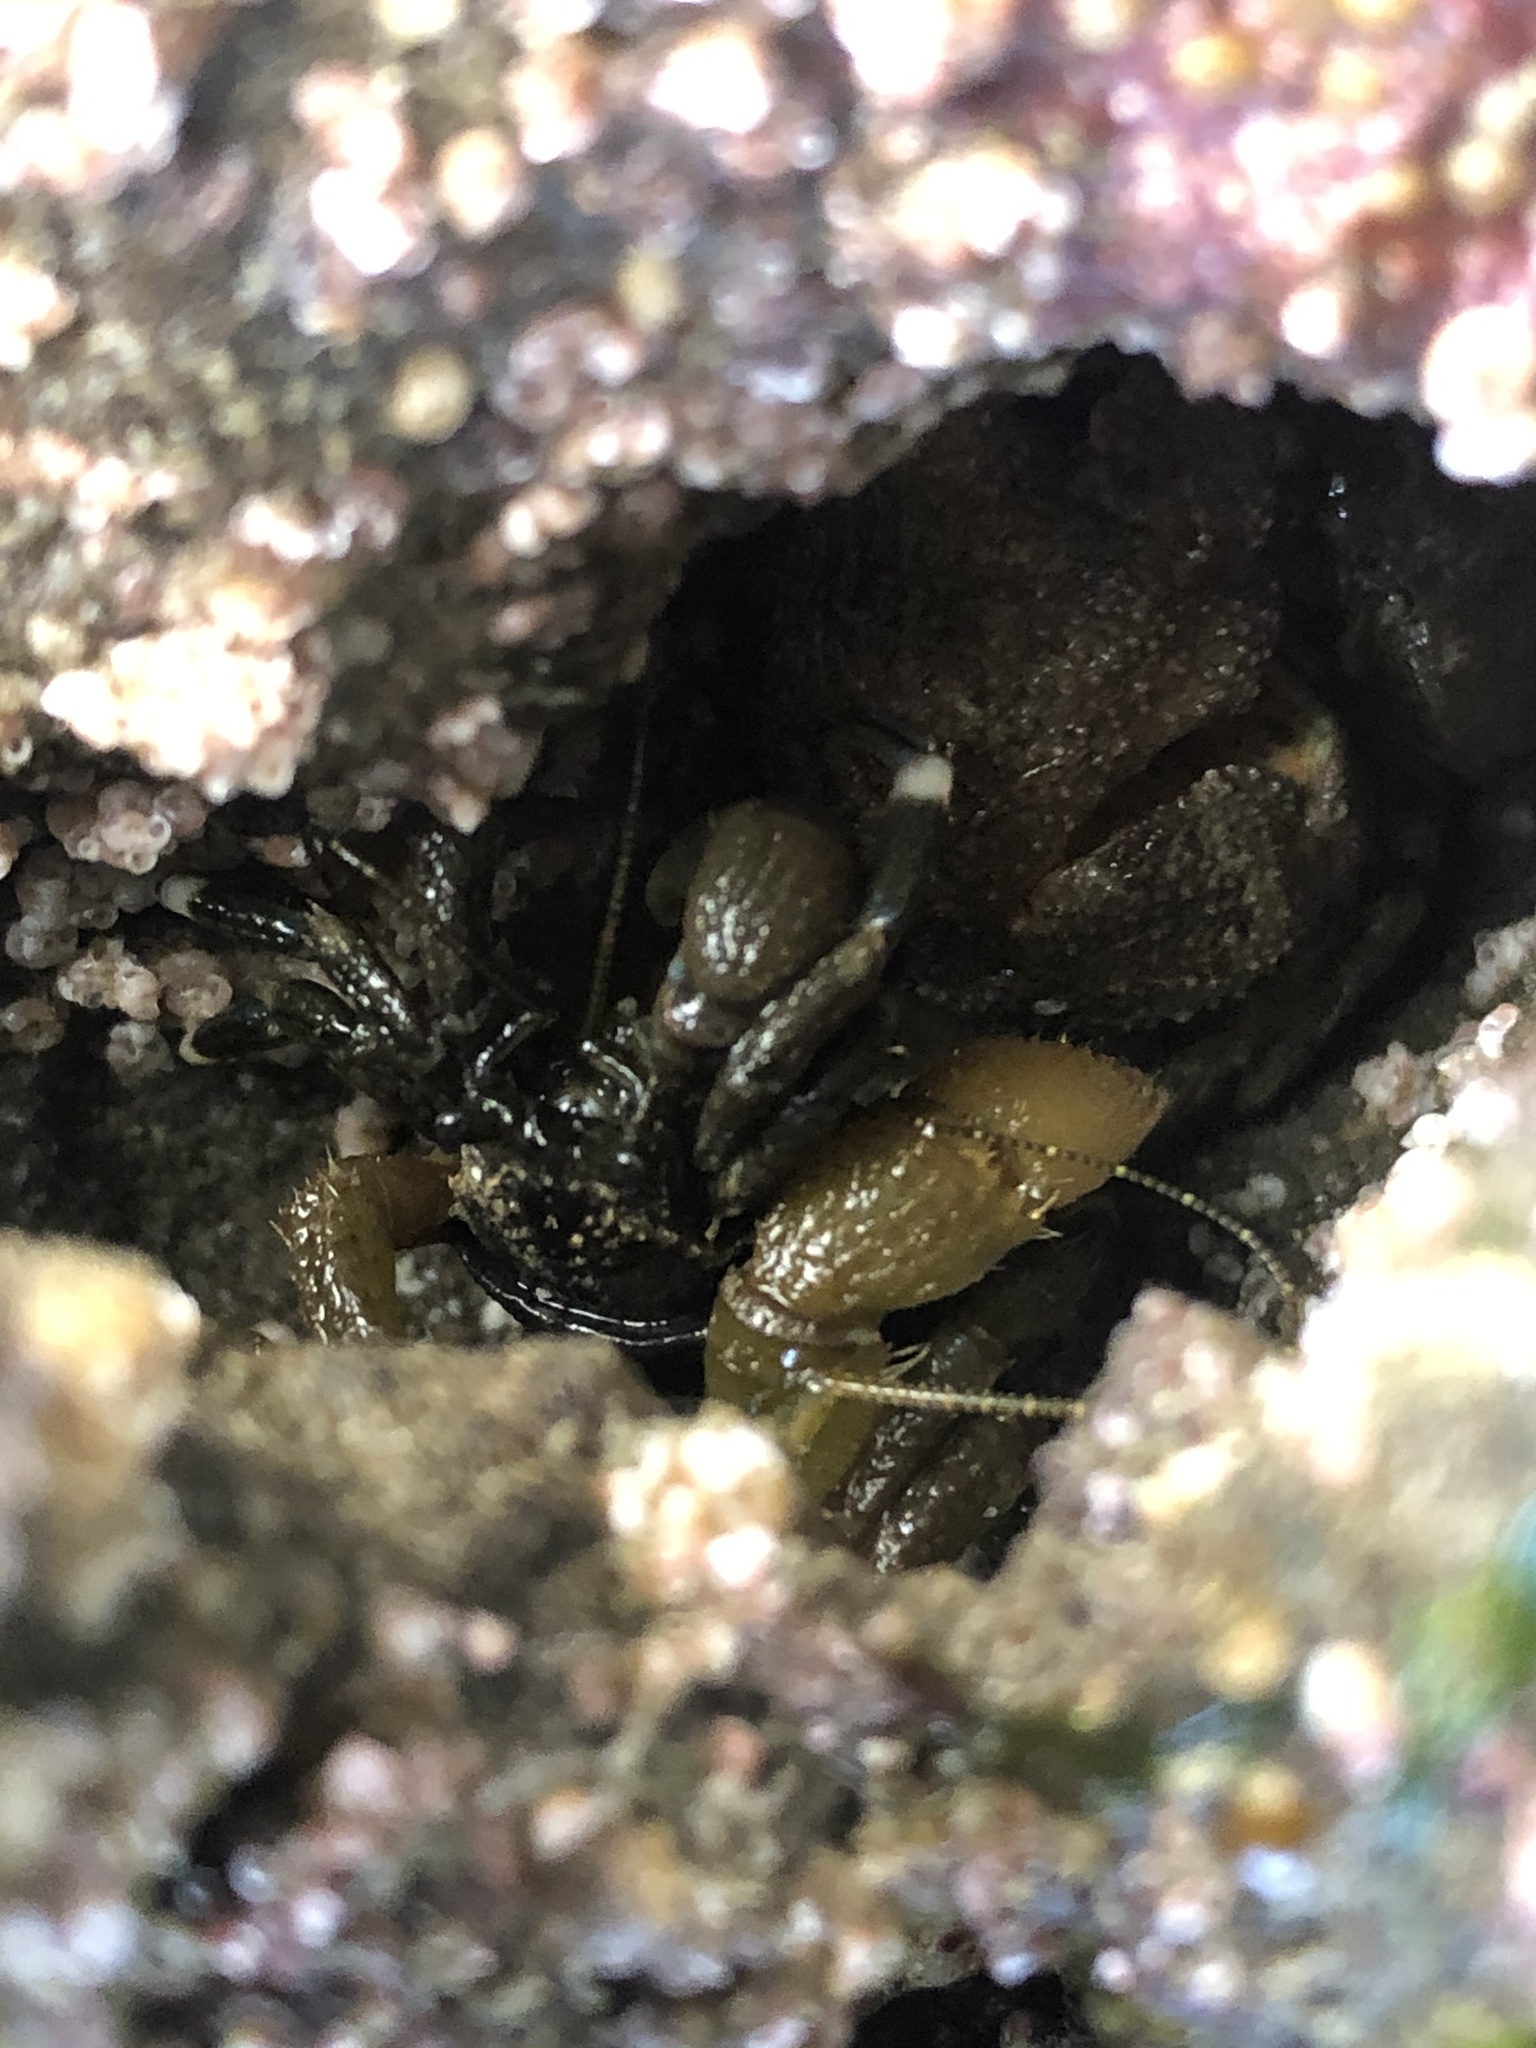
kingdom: Animalia
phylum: Arthropoda
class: Malacostraca
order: Decapoda
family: Paguridae
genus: Pagurus
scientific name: Pagurus hirsutiusculus
